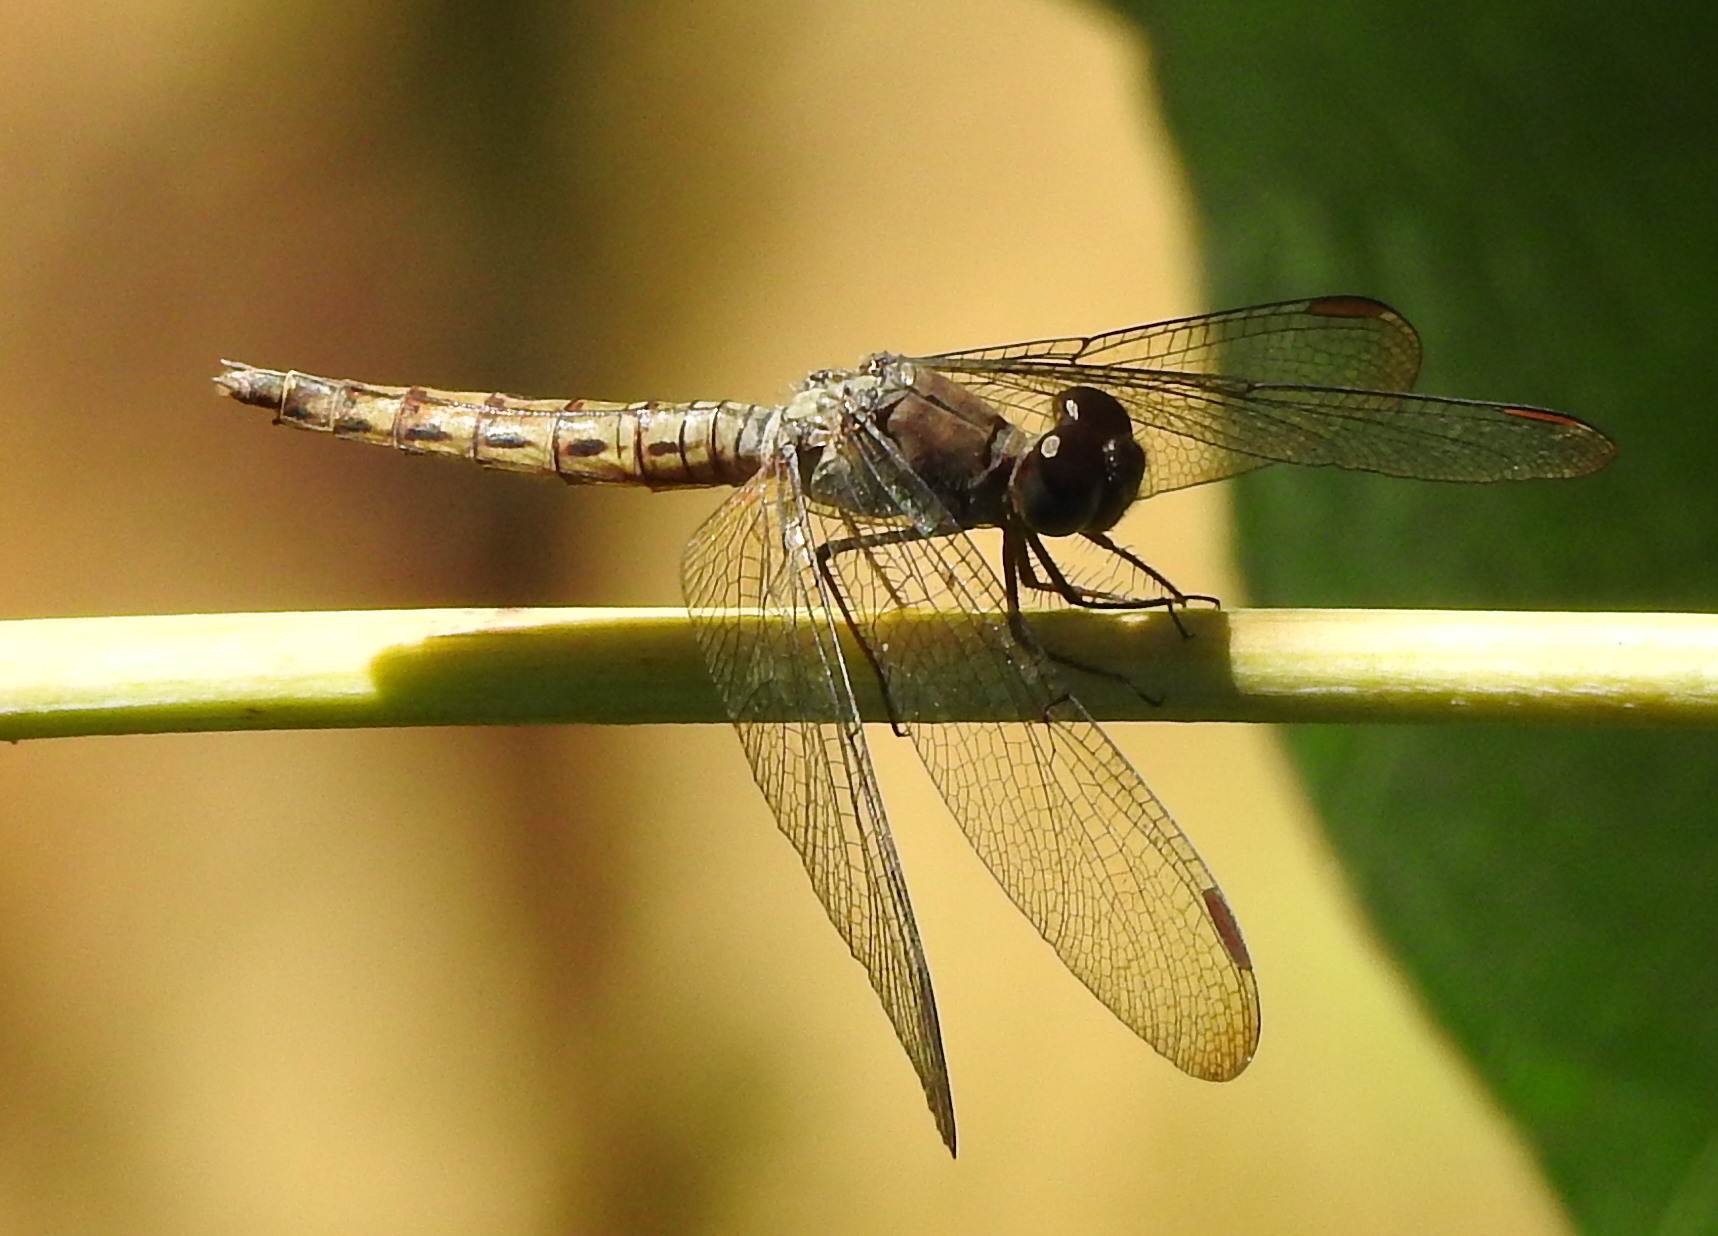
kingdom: Animalia
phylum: Arthropoda
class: Insecta
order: Odonata
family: Libellulidae
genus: Neurothemis
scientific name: Neurothemis fluctuans
